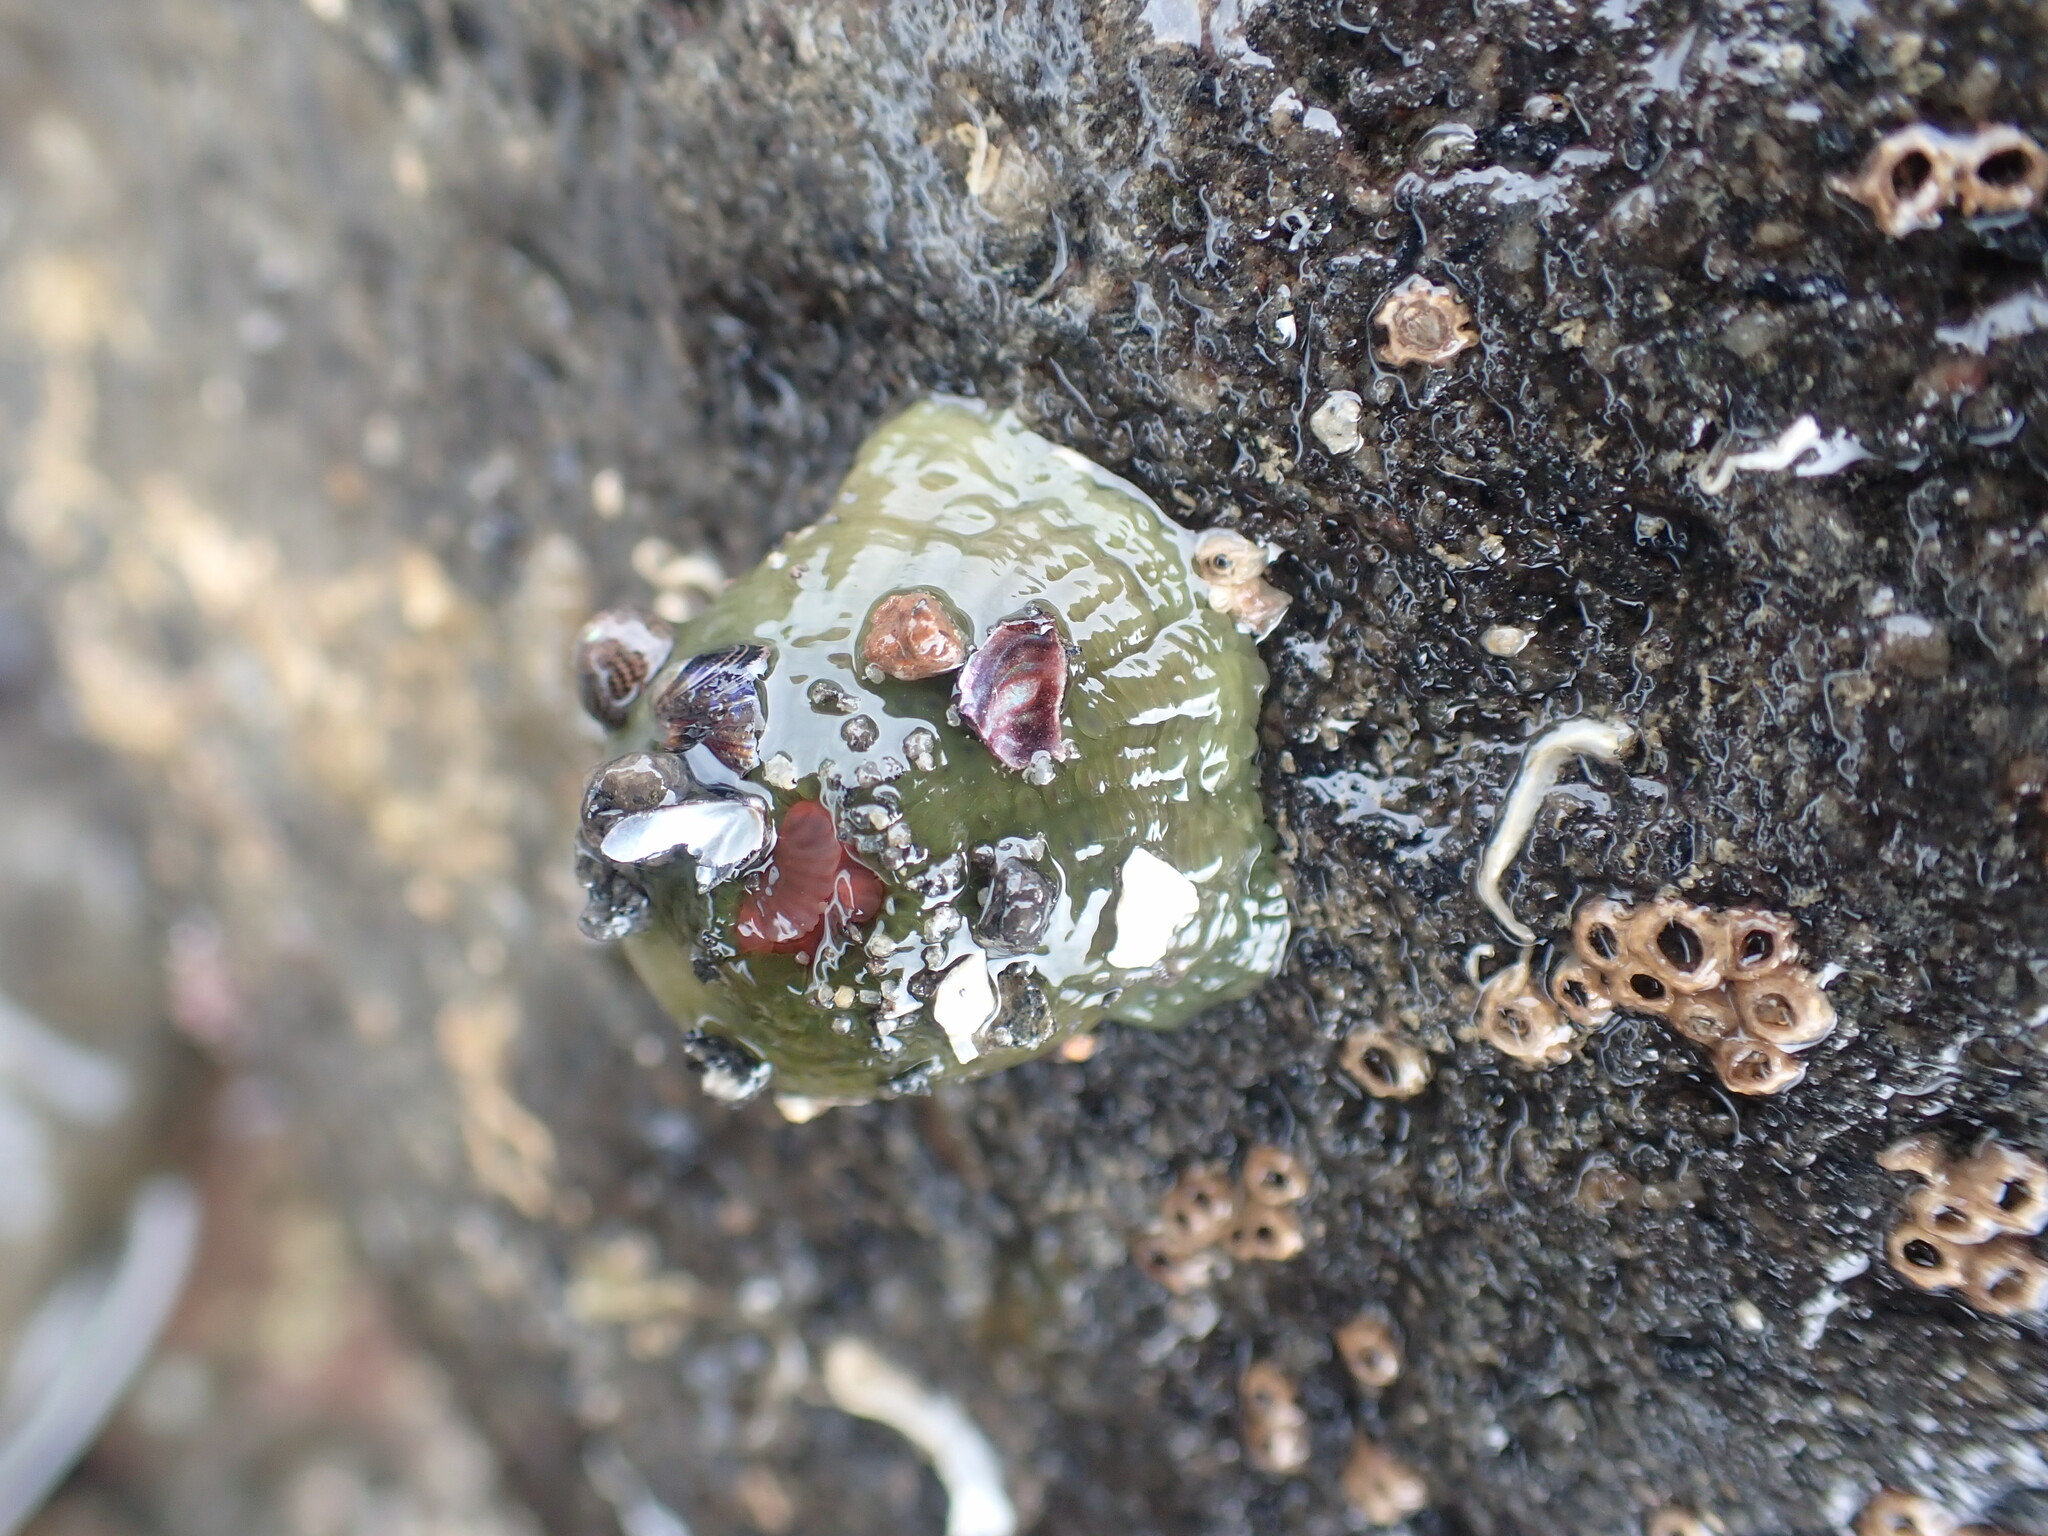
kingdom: Animalia
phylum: Cnidaria
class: Anthozoa
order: Actiniaria
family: Actiniidae
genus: Isactinia
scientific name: Isactinia olivacea
